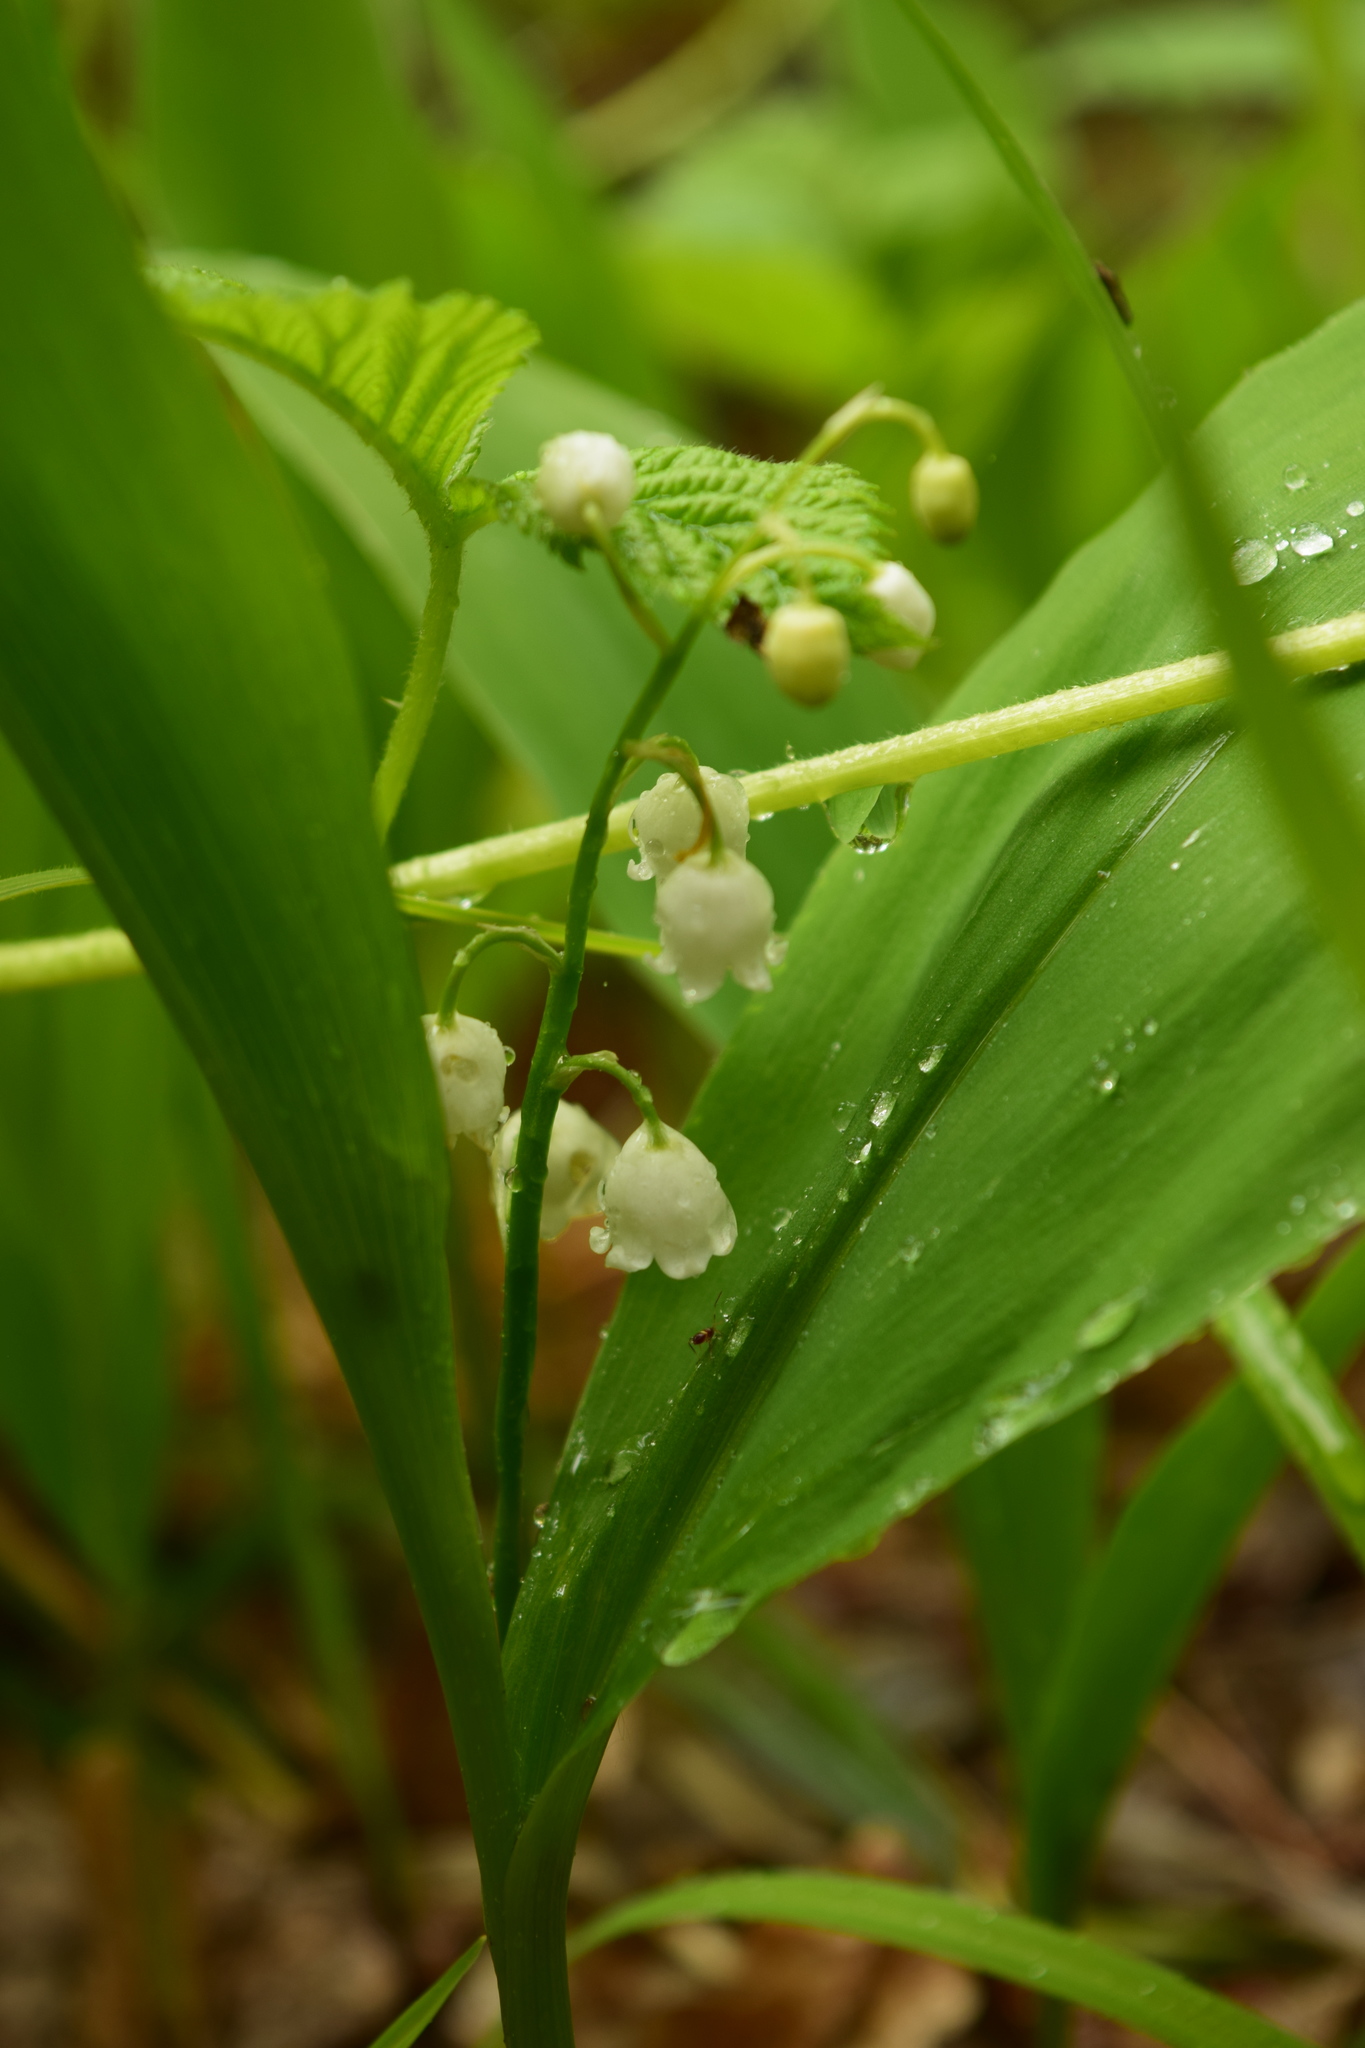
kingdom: Plantae
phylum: Tracheophyta
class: Liliopsida
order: Asparagales
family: Asparagaceae
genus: Convallaria
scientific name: Convallaria majalis
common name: Lily-of-the-valley
